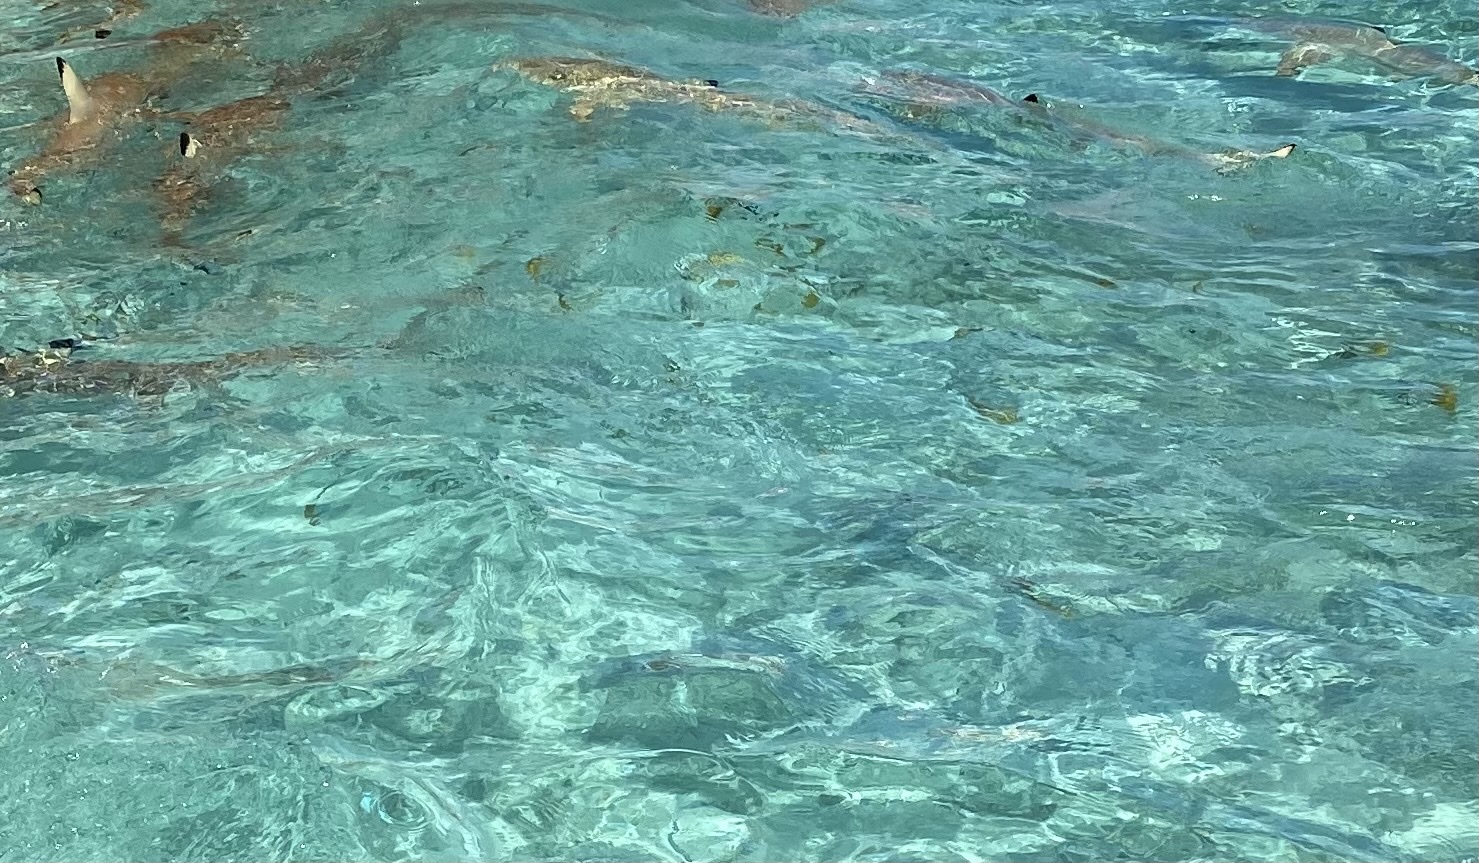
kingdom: Animalia
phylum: Chordata
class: Elasmobranchii
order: Carcharhiniformes
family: Carcharhinidae
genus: Carcharhinus
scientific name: Carcharhinus melanopterus
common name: Blacktip reef shark
